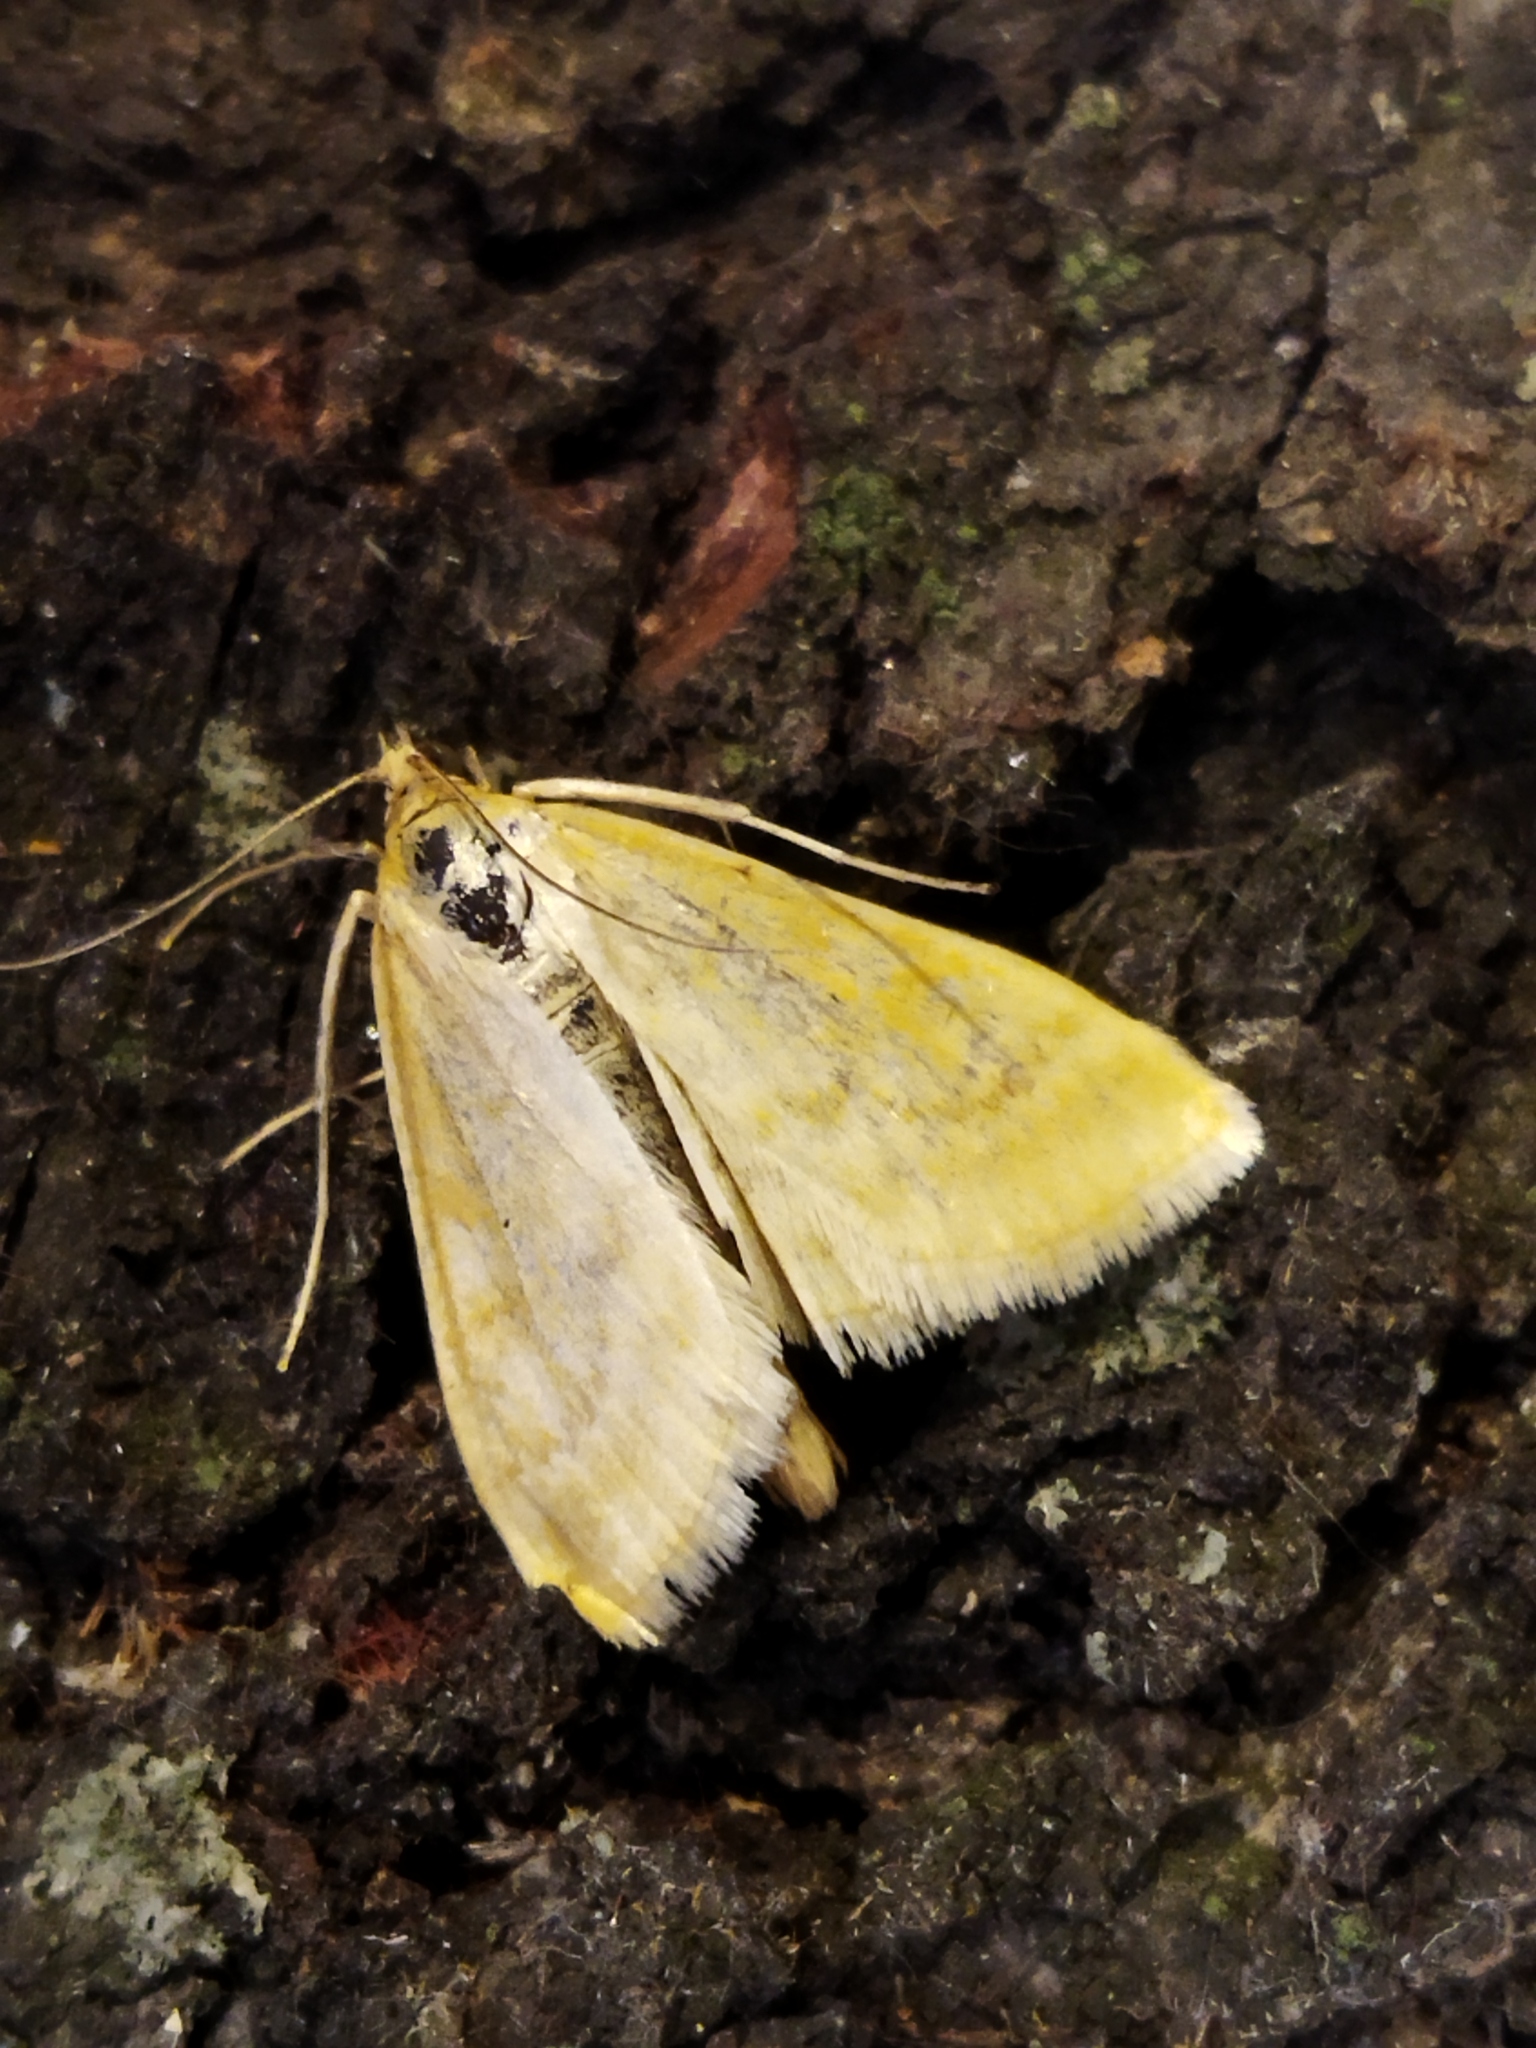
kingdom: Animalia
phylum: Arthropoda
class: Insecta
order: Lepidoptera
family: Crambidae
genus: Sitochroa
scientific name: Sitochroa verticalis
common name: Lesser pearl
